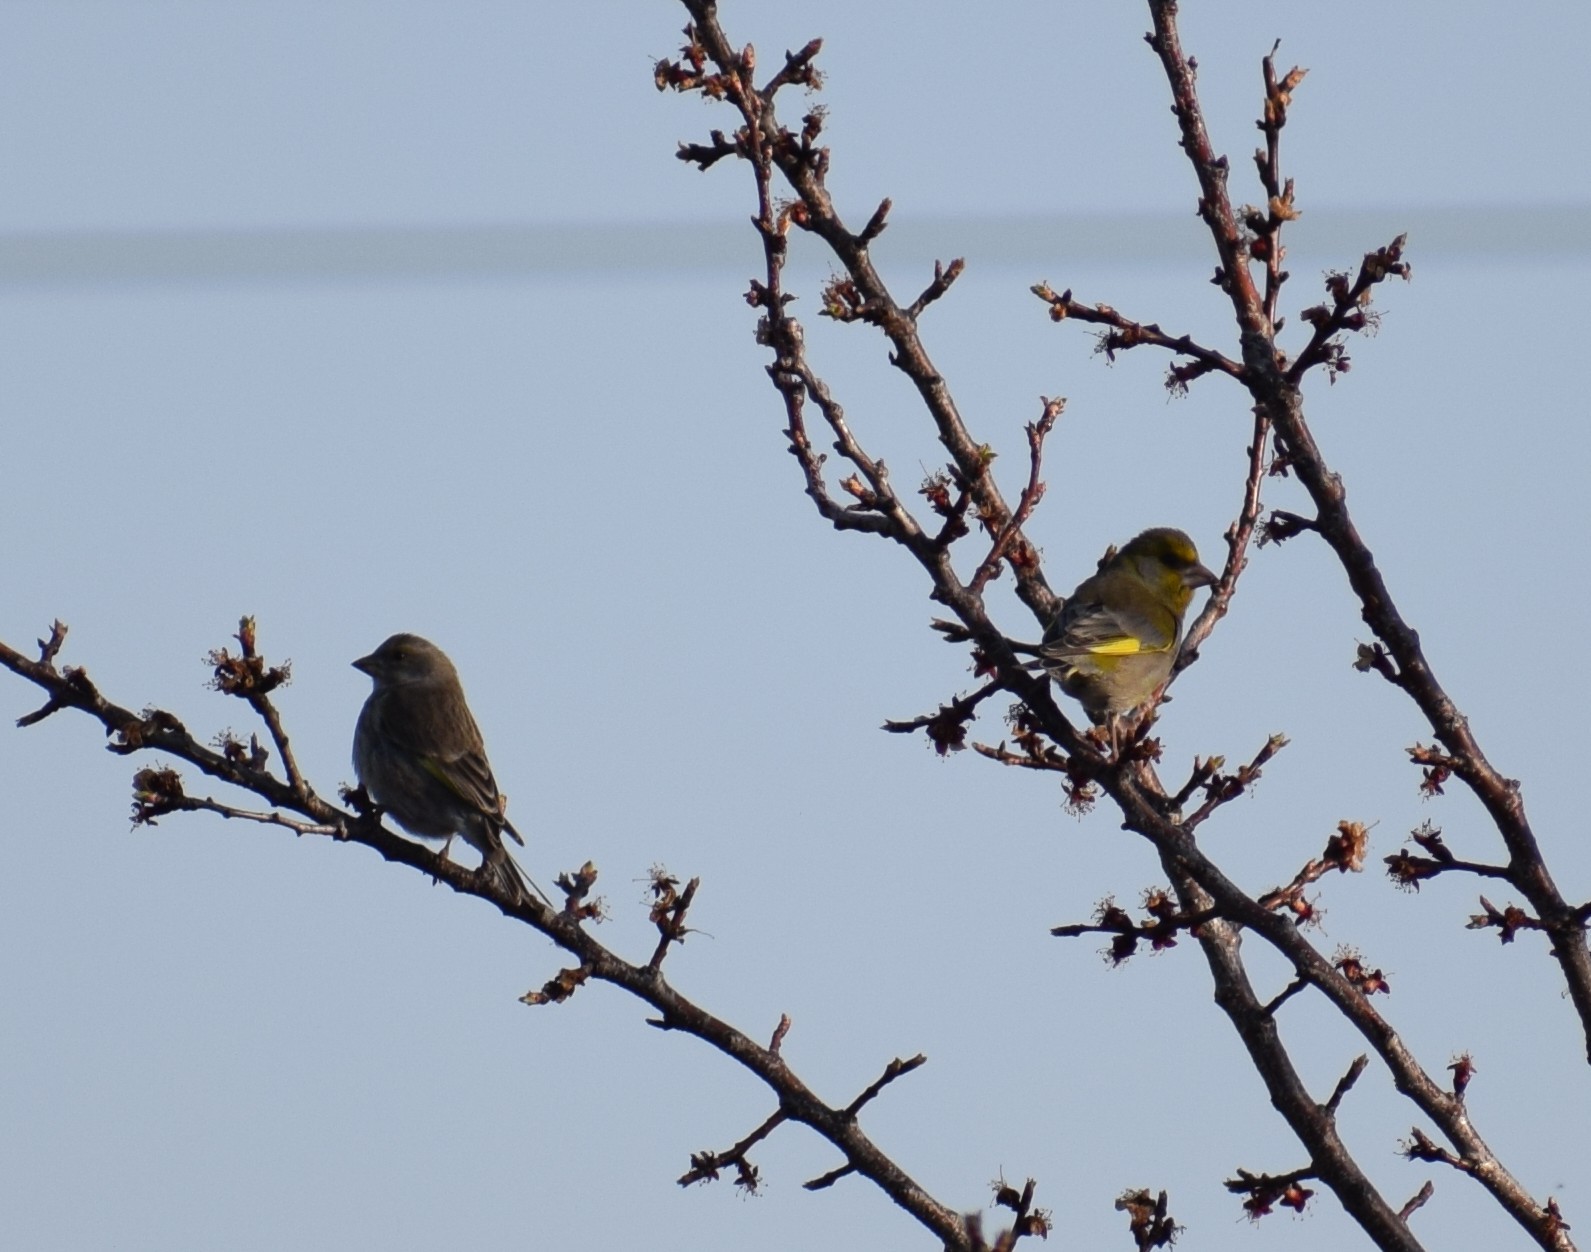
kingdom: Plantae
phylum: Tracheophyta
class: Liliopsida
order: Poales
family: Poaceae
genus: Chloris
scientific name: Chloris chloris
